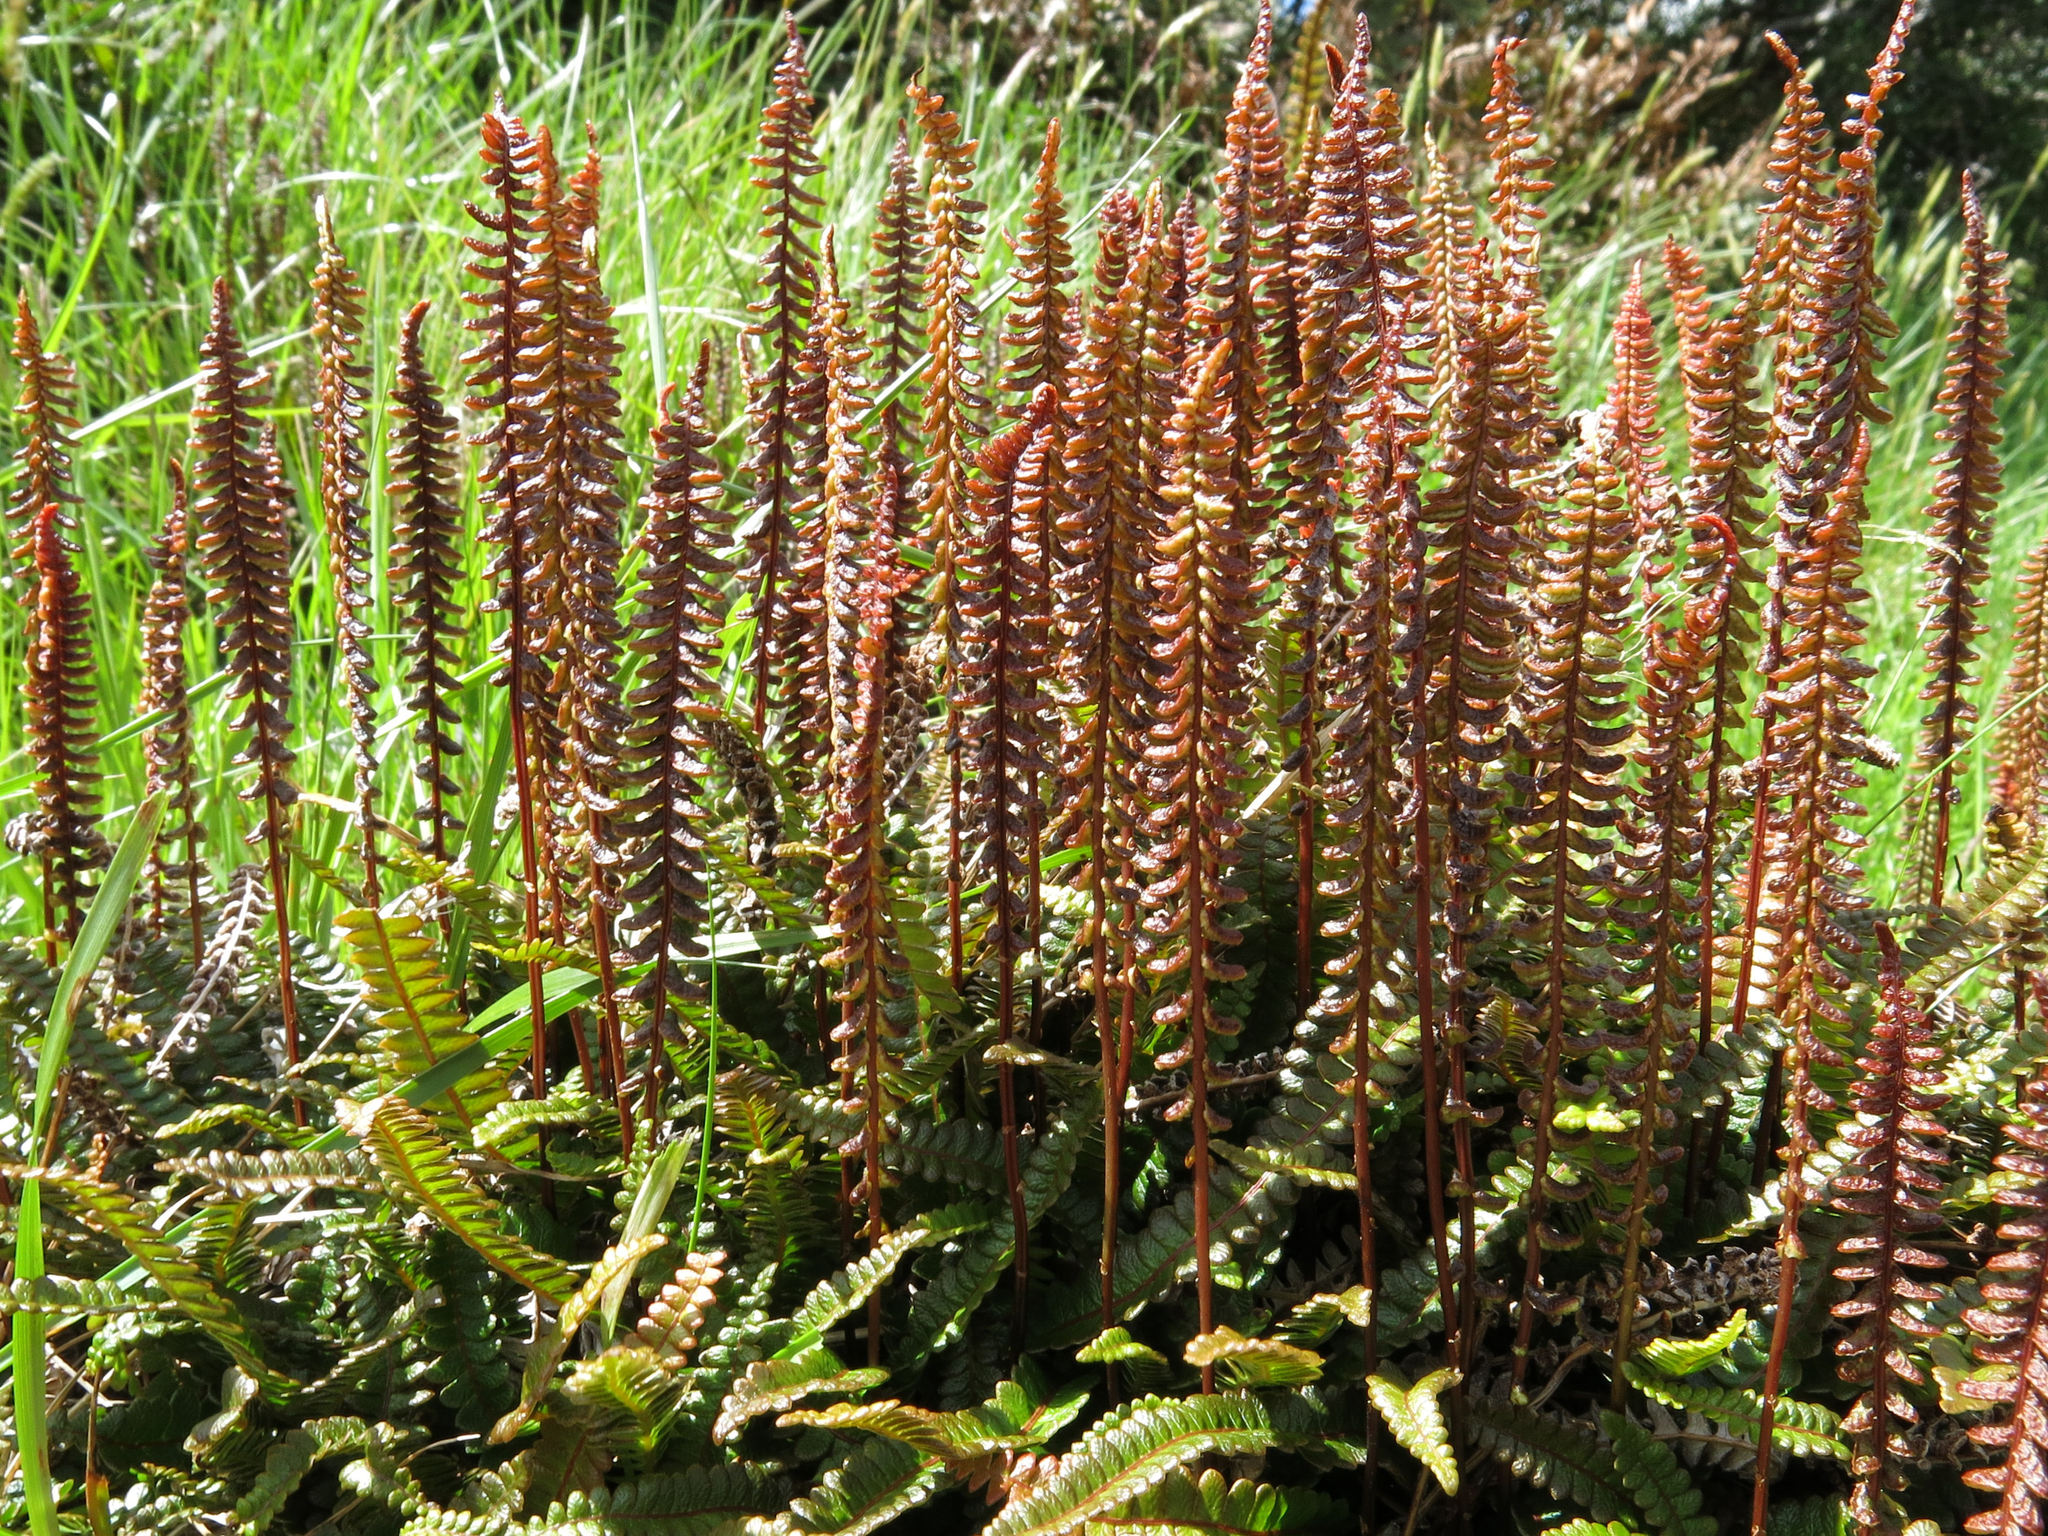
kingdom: Plantae
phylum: Tracheophyta
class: Polypodiopsida
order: Polypodiales
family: Blechnaceae
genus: Austroblechnum
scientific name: Austroblechnum penna-marina
